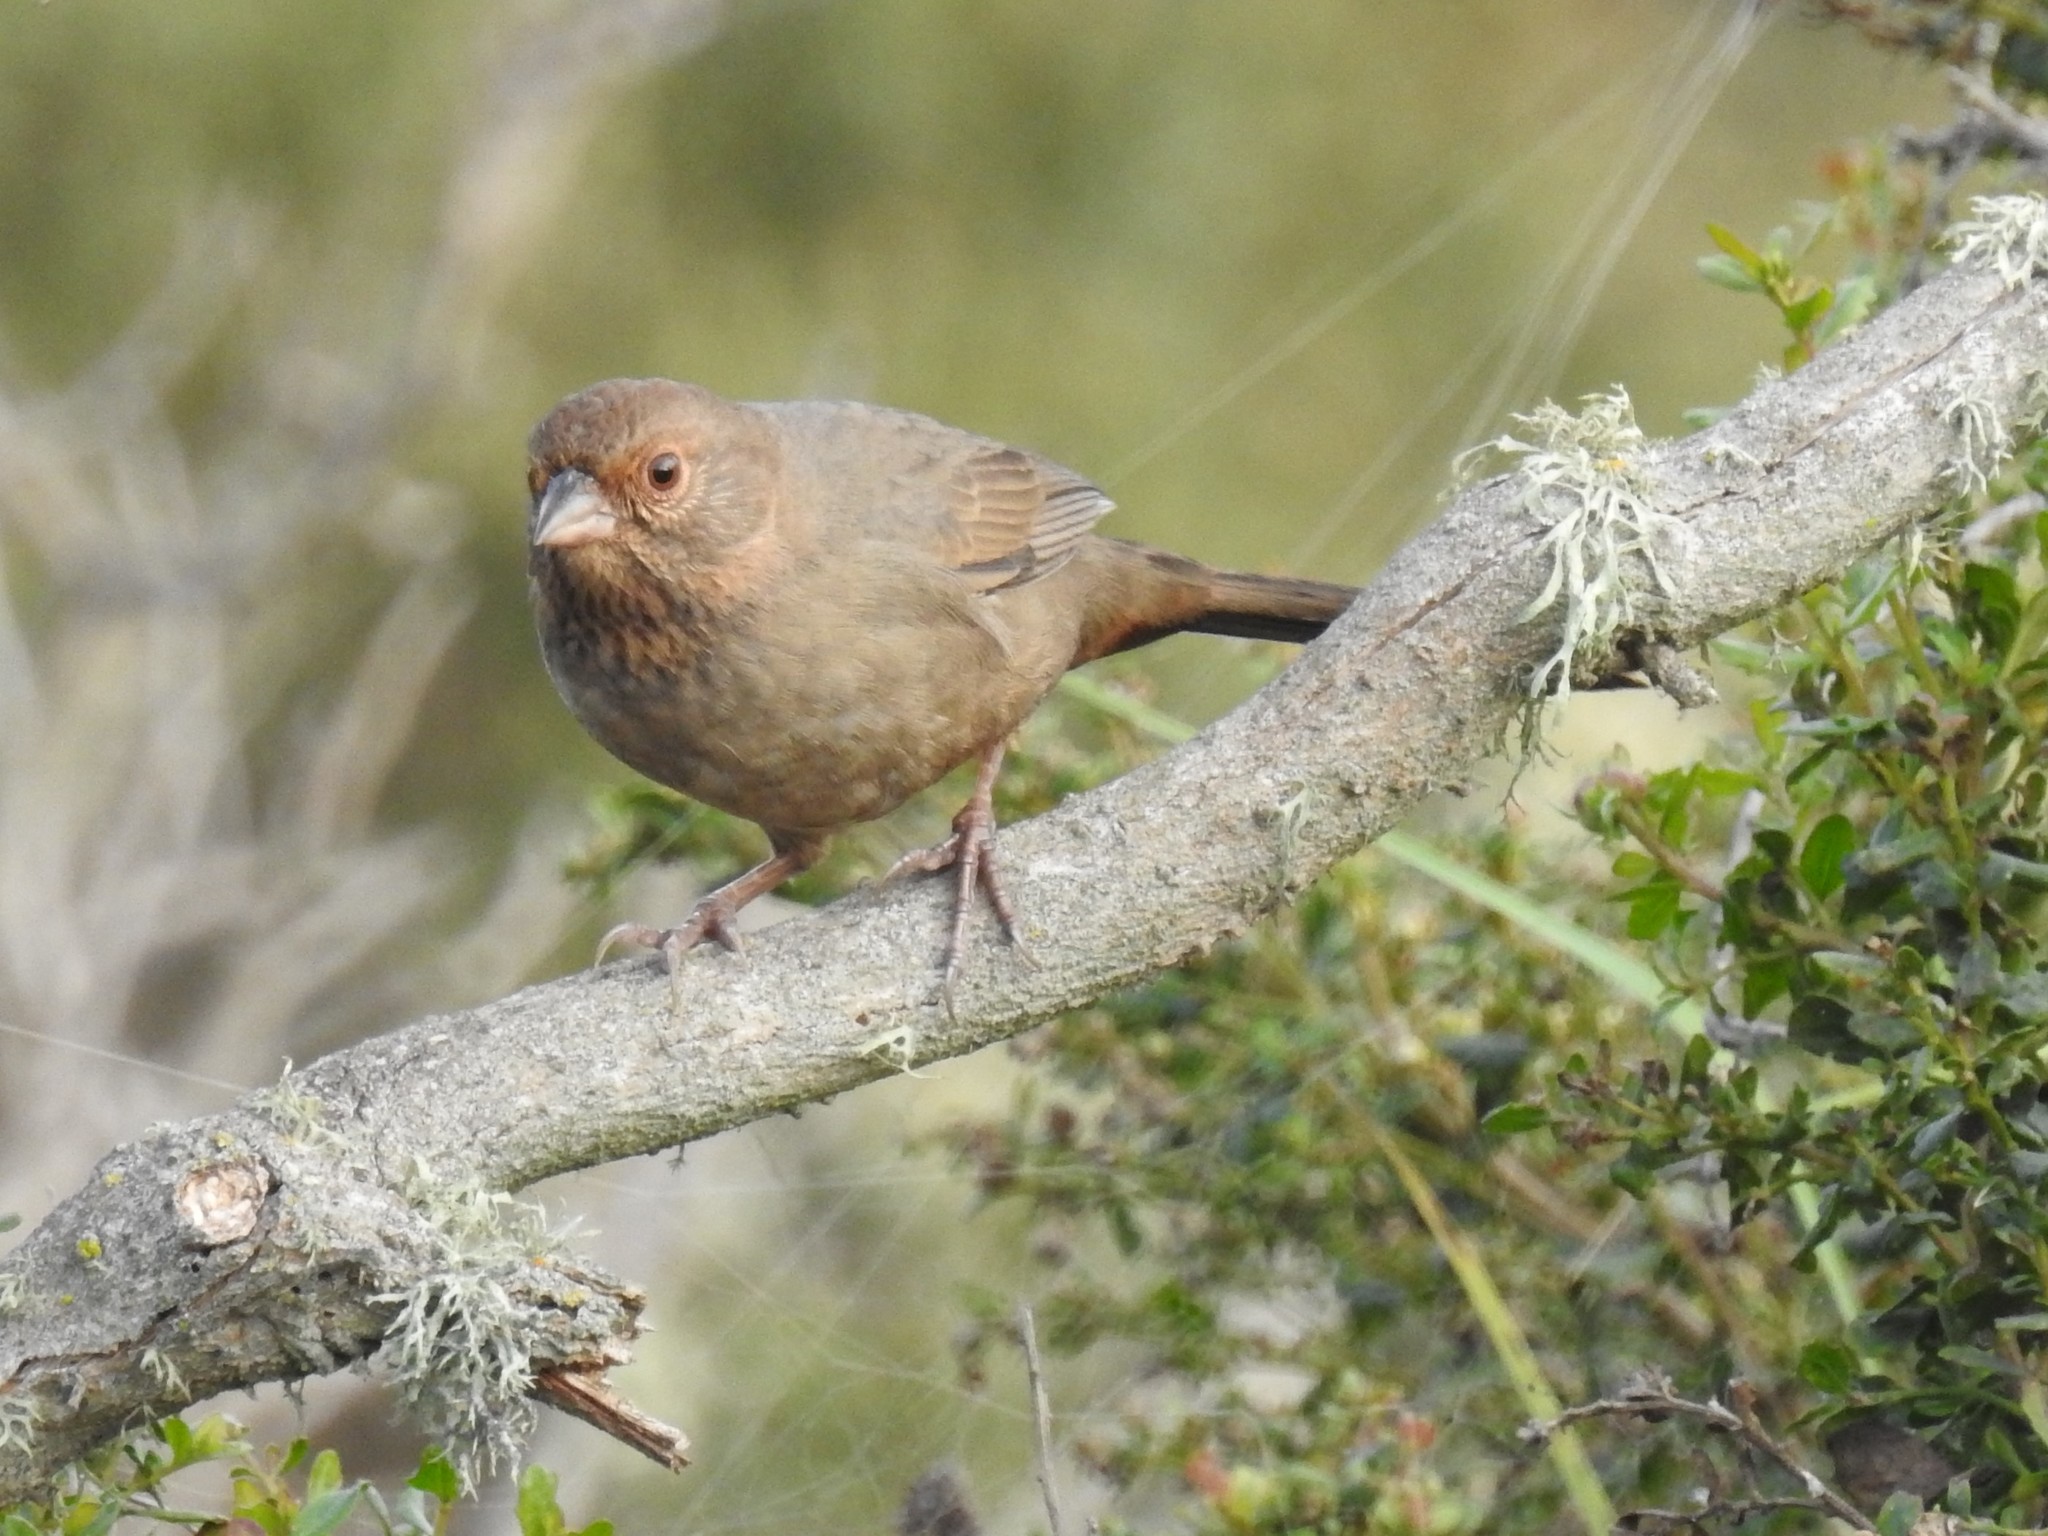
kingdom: Animalia
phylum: Chordata
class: Aves
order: Passeriformes
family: Passerellidae
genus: Melozone
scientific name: Melozone crissalis
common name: California towhee
